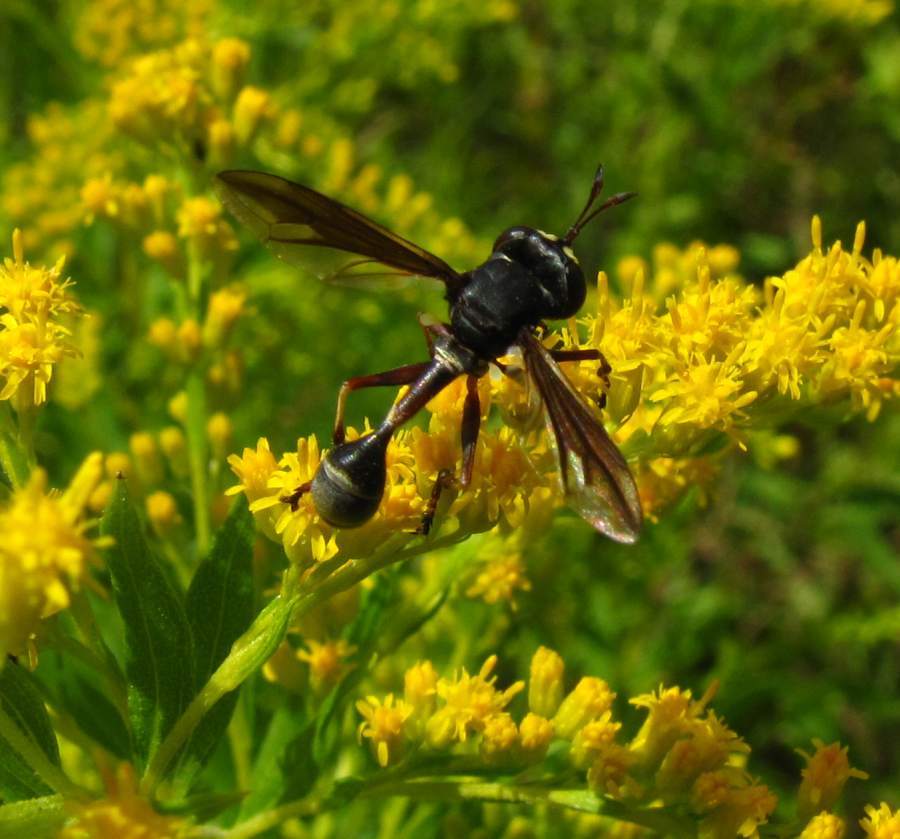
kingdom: Animalia
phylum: Arthropoda
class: Insecta
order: Diptera
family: Conopidae
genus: Physocephala
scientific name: Physocephala furcillata
